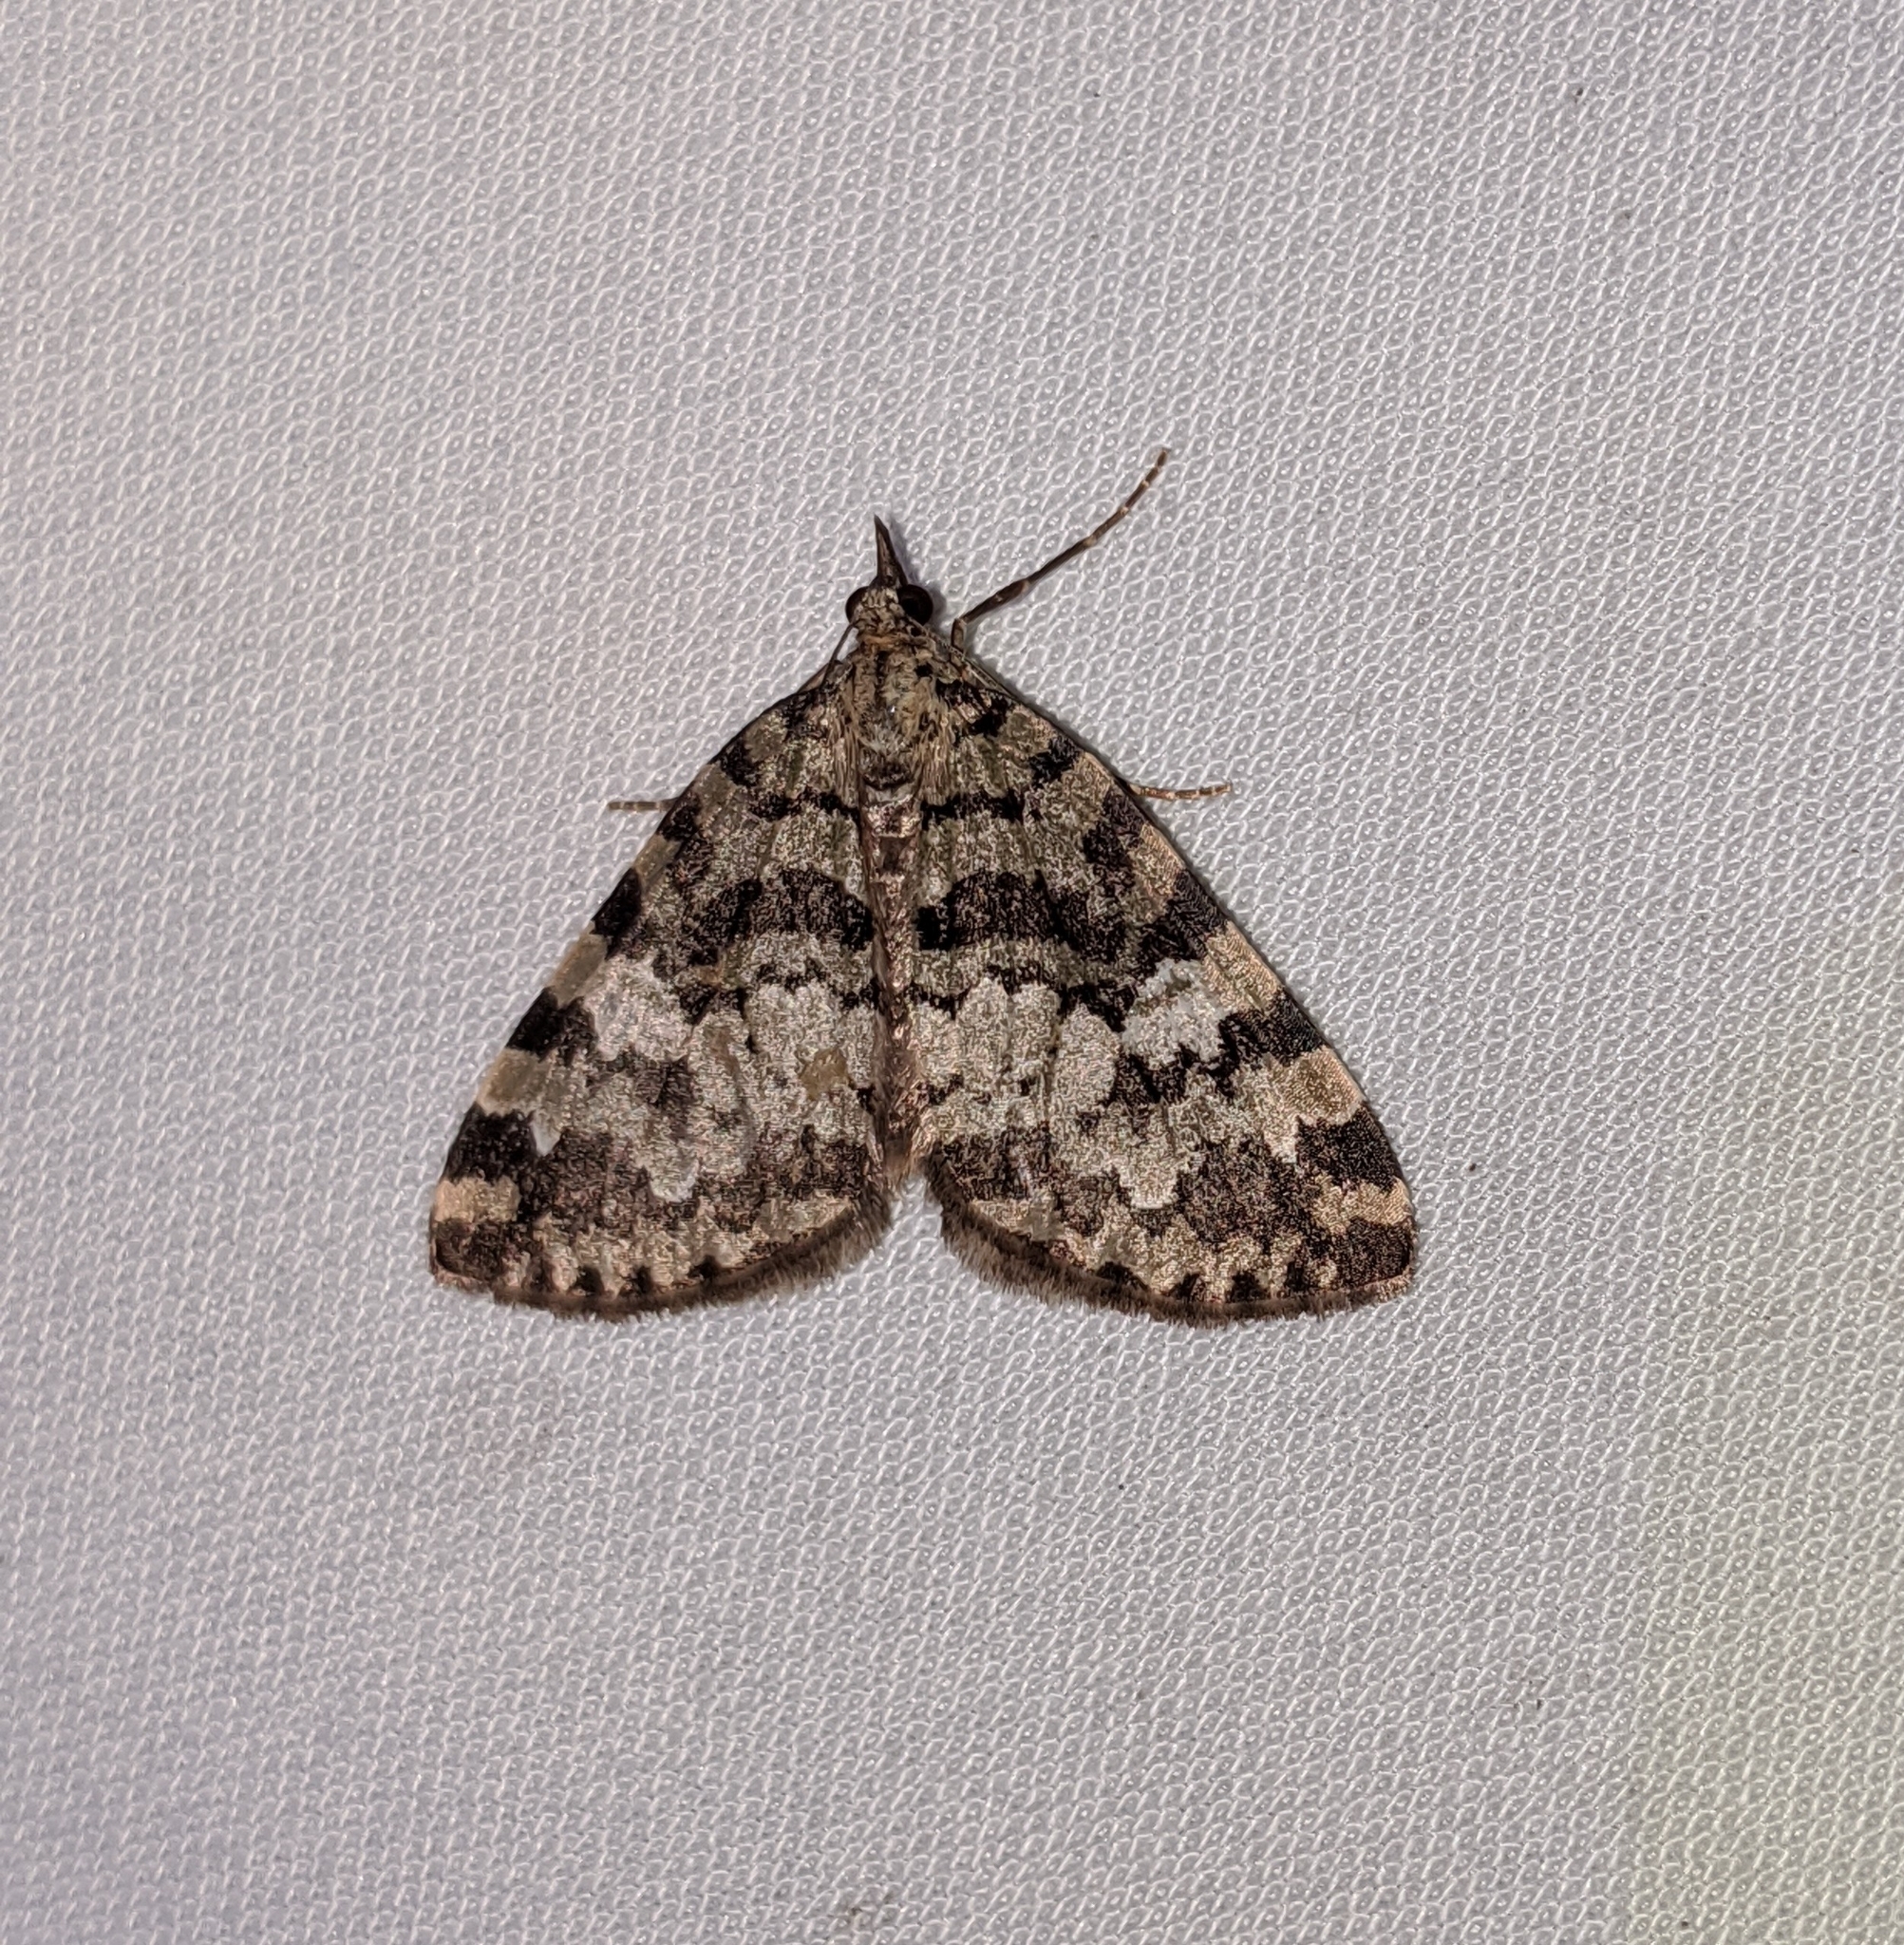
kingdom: Animalia
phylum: Arthropoda
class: Insecta
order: Lepidoptera
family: Geometridae
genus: Hydriomena
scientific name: Hydriomena speciosata
